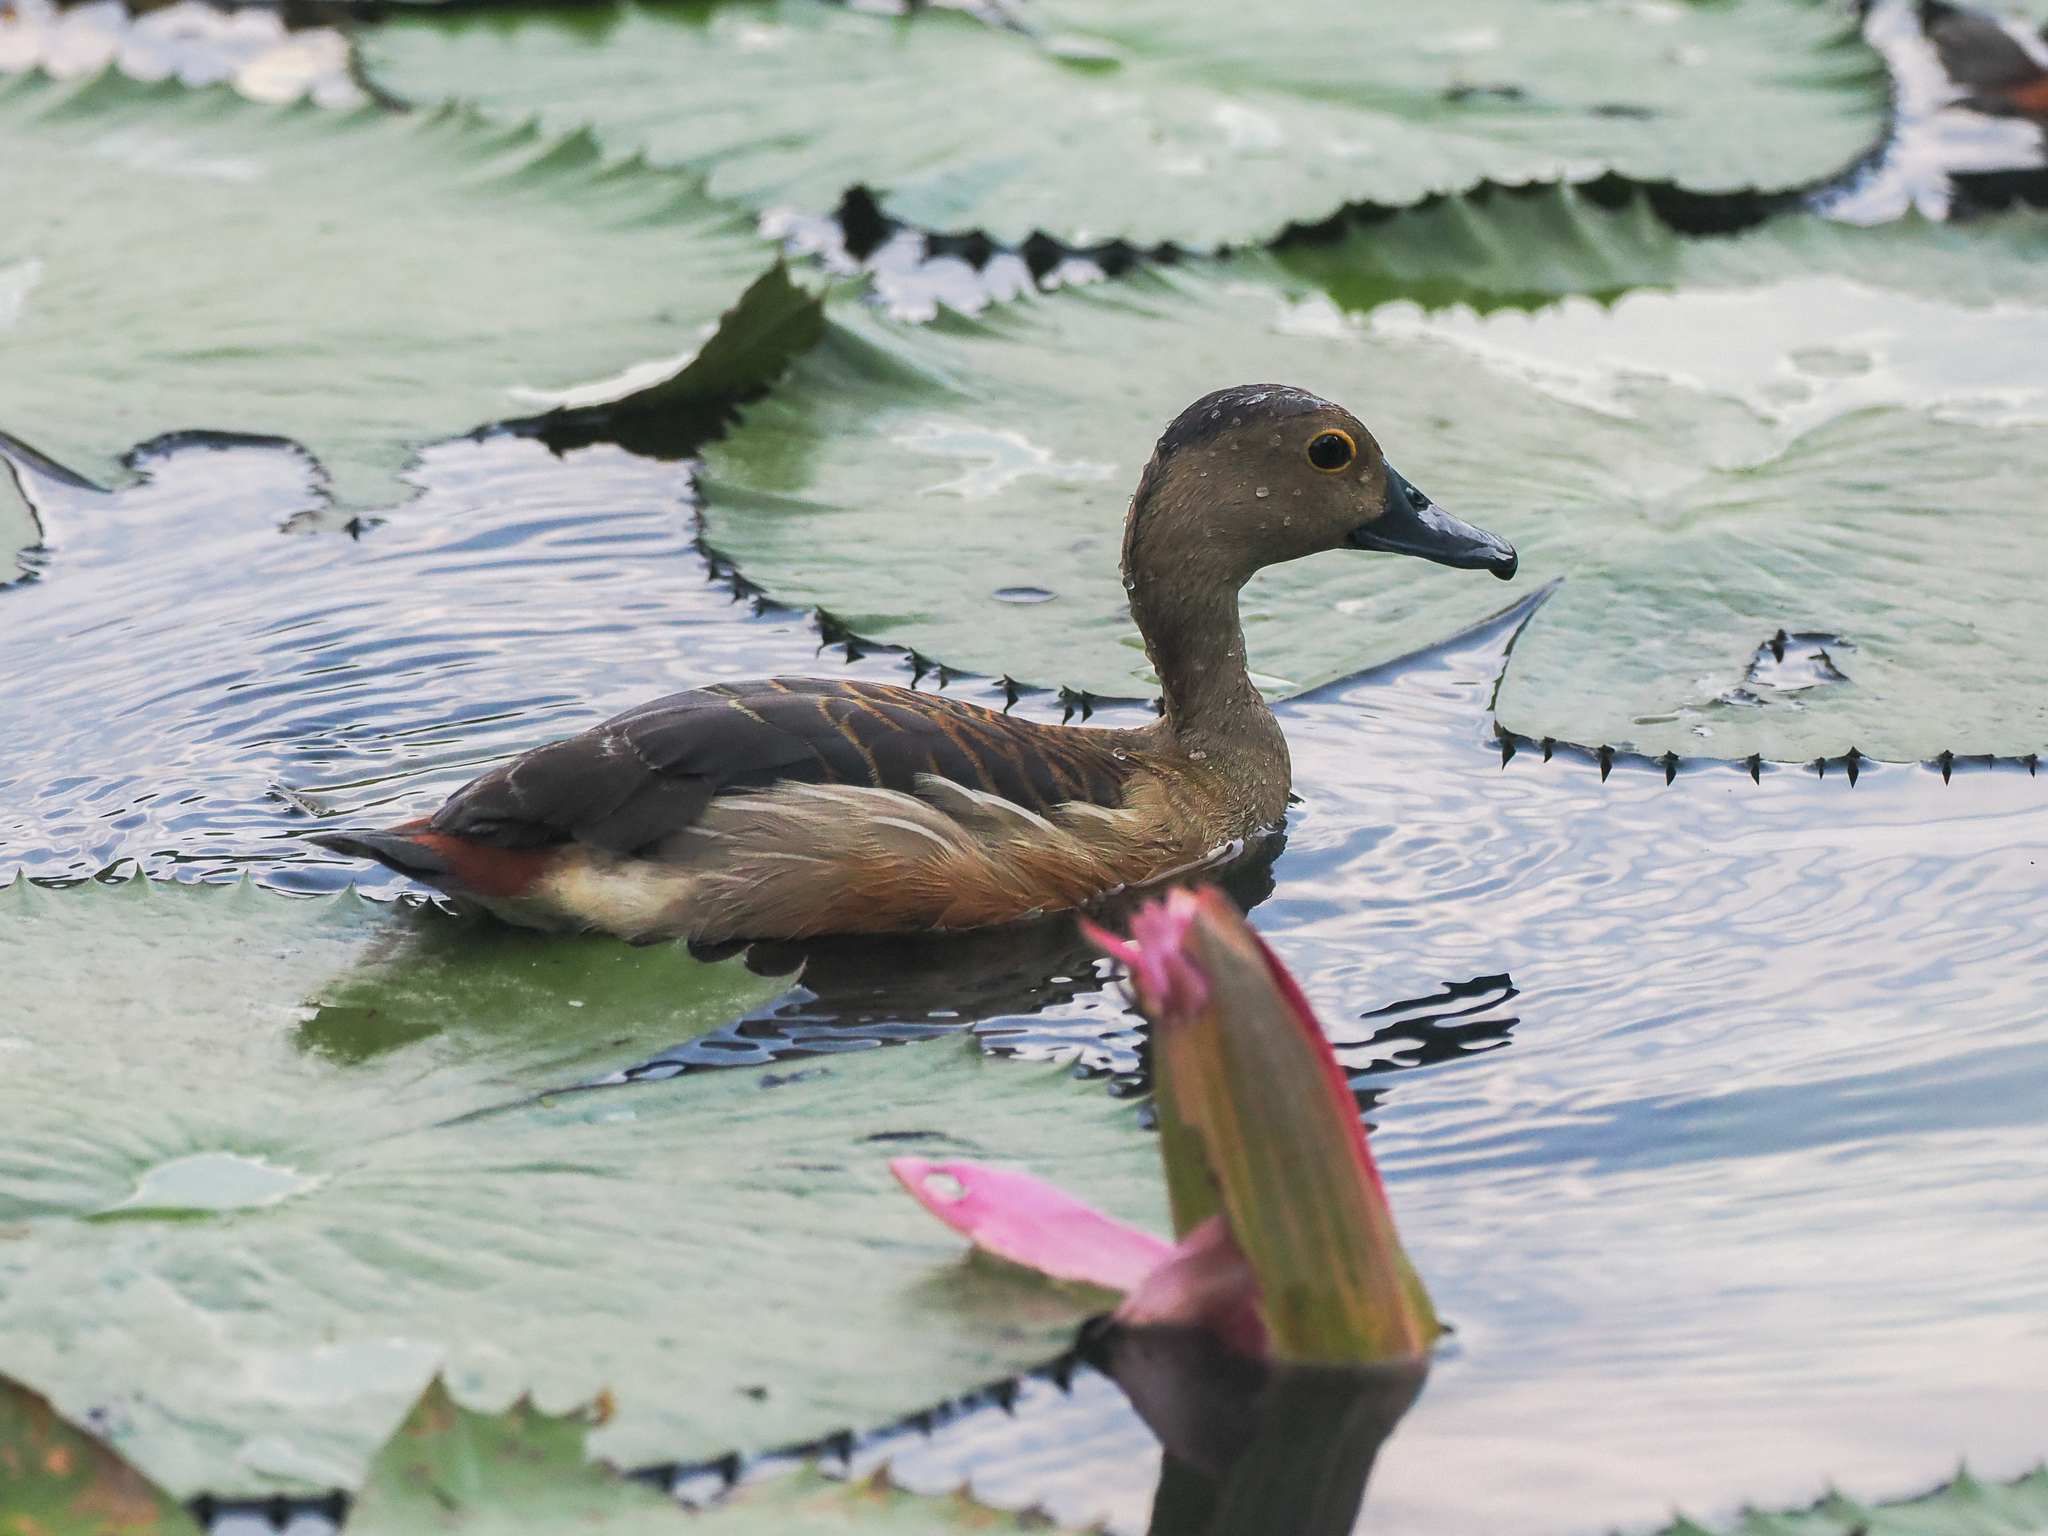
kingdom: Animalia
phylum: Chordata
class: Aves
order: Anseriformes
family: Anatidae
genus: Dendrocygna
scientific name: Dendrocygna javanica
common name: Lesser whistling-duck
